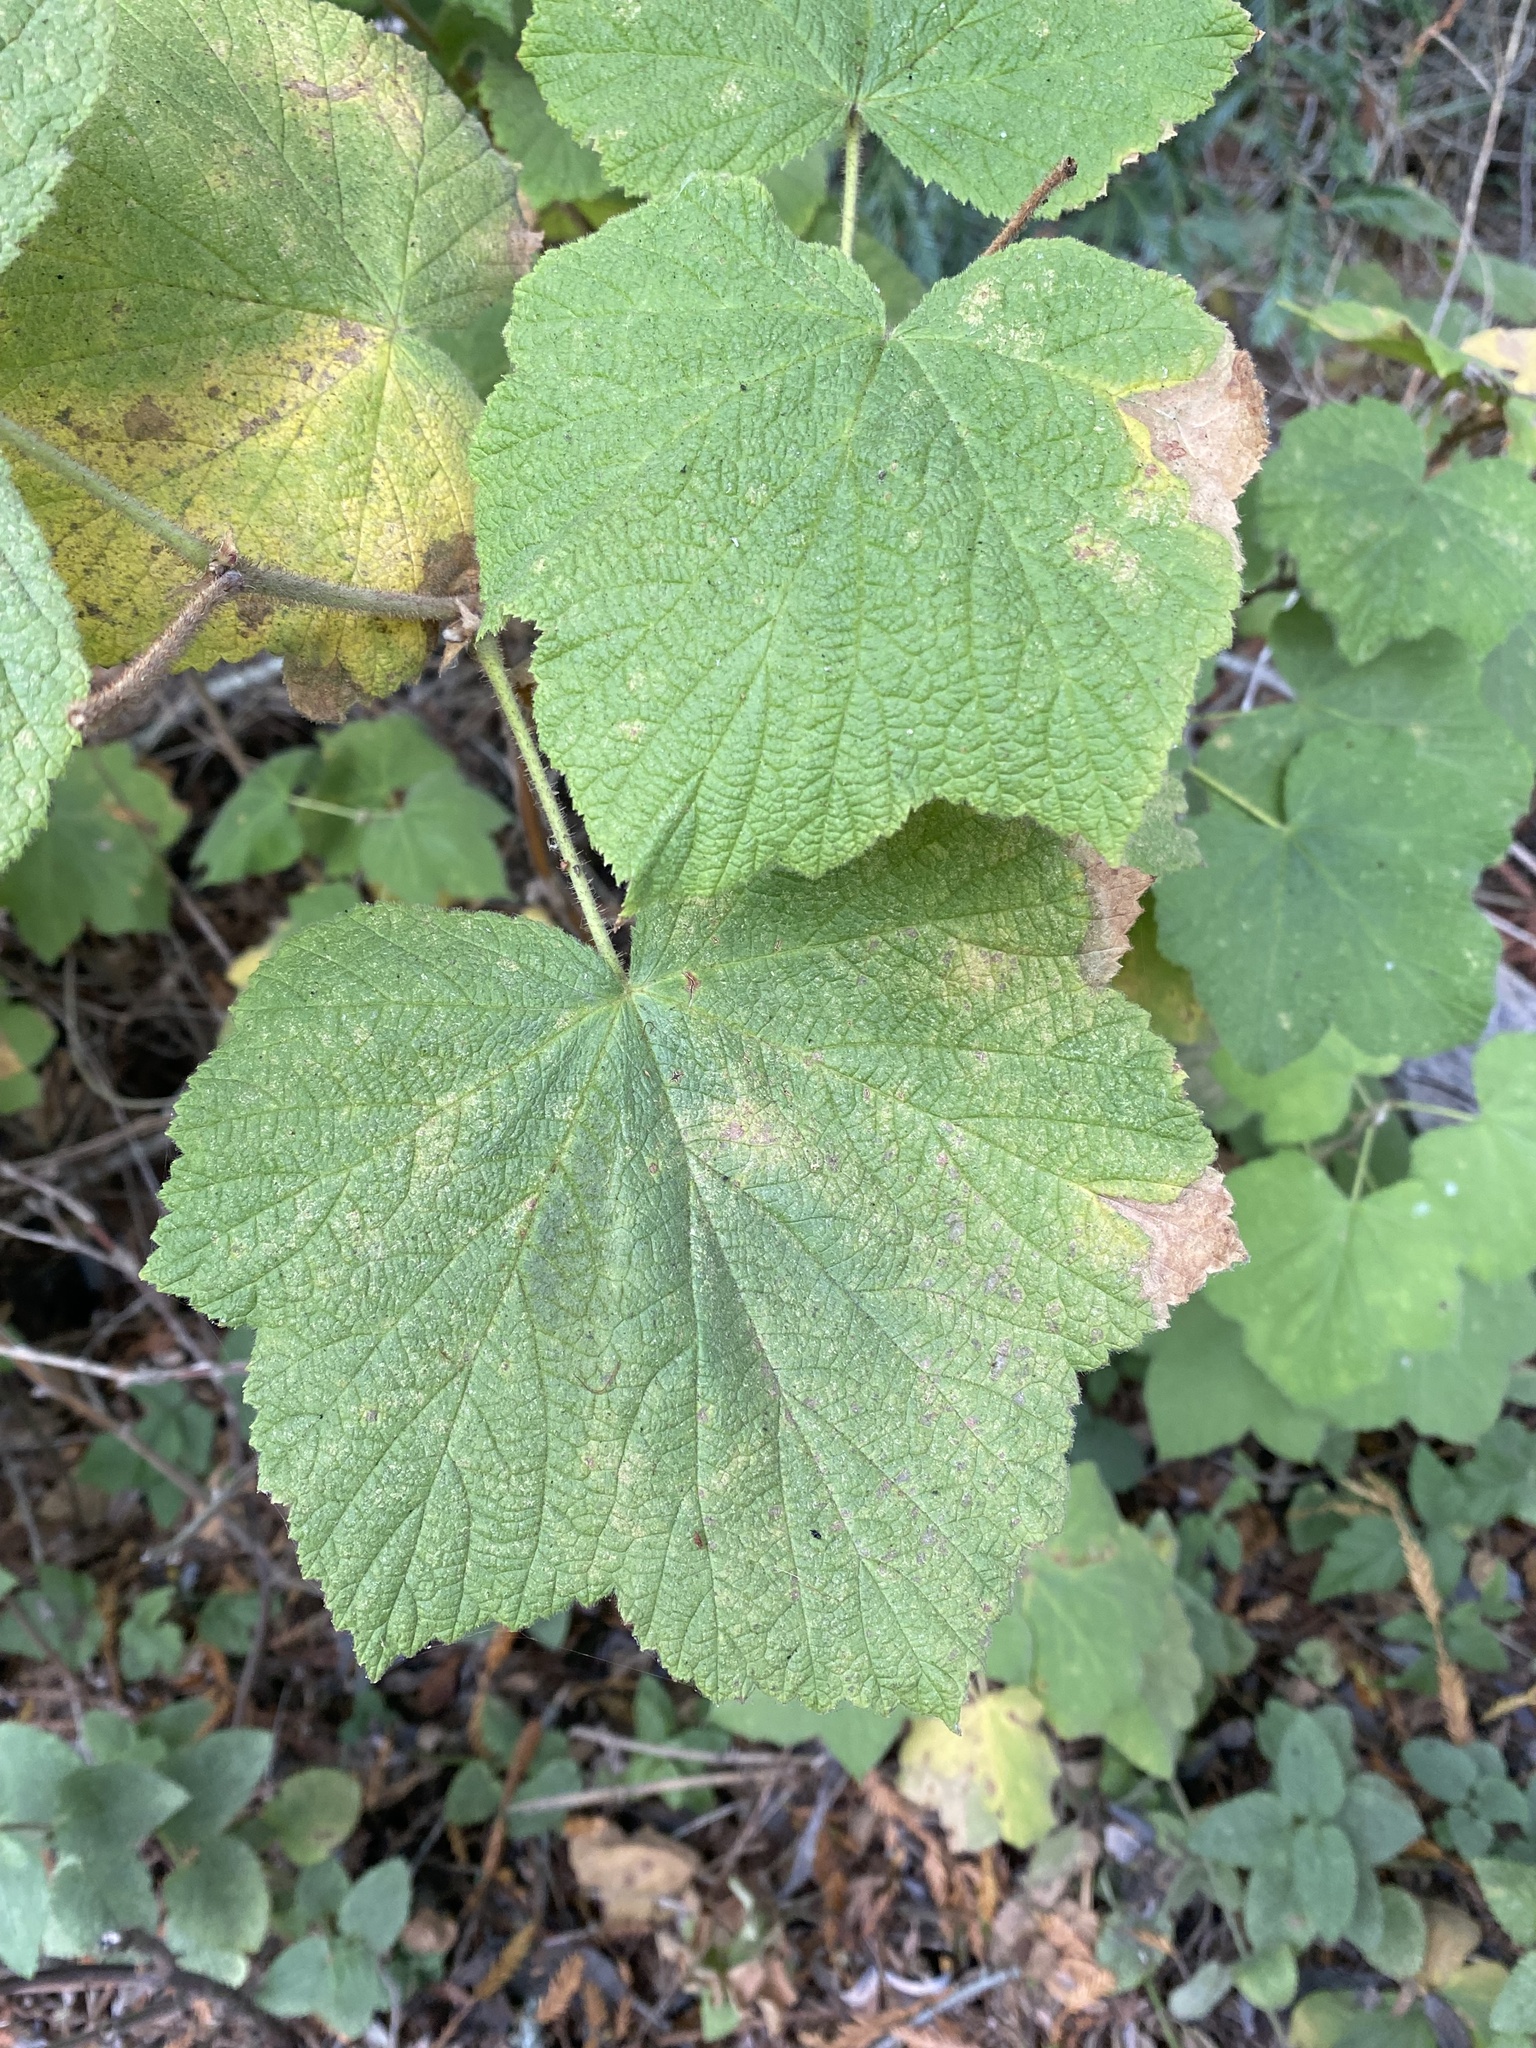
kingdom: Plantae
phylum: Tracheophyta
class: Magnoliopsida
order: Rosales
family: Rosaceae
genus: Rubus
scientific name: Rubus parviflorus
